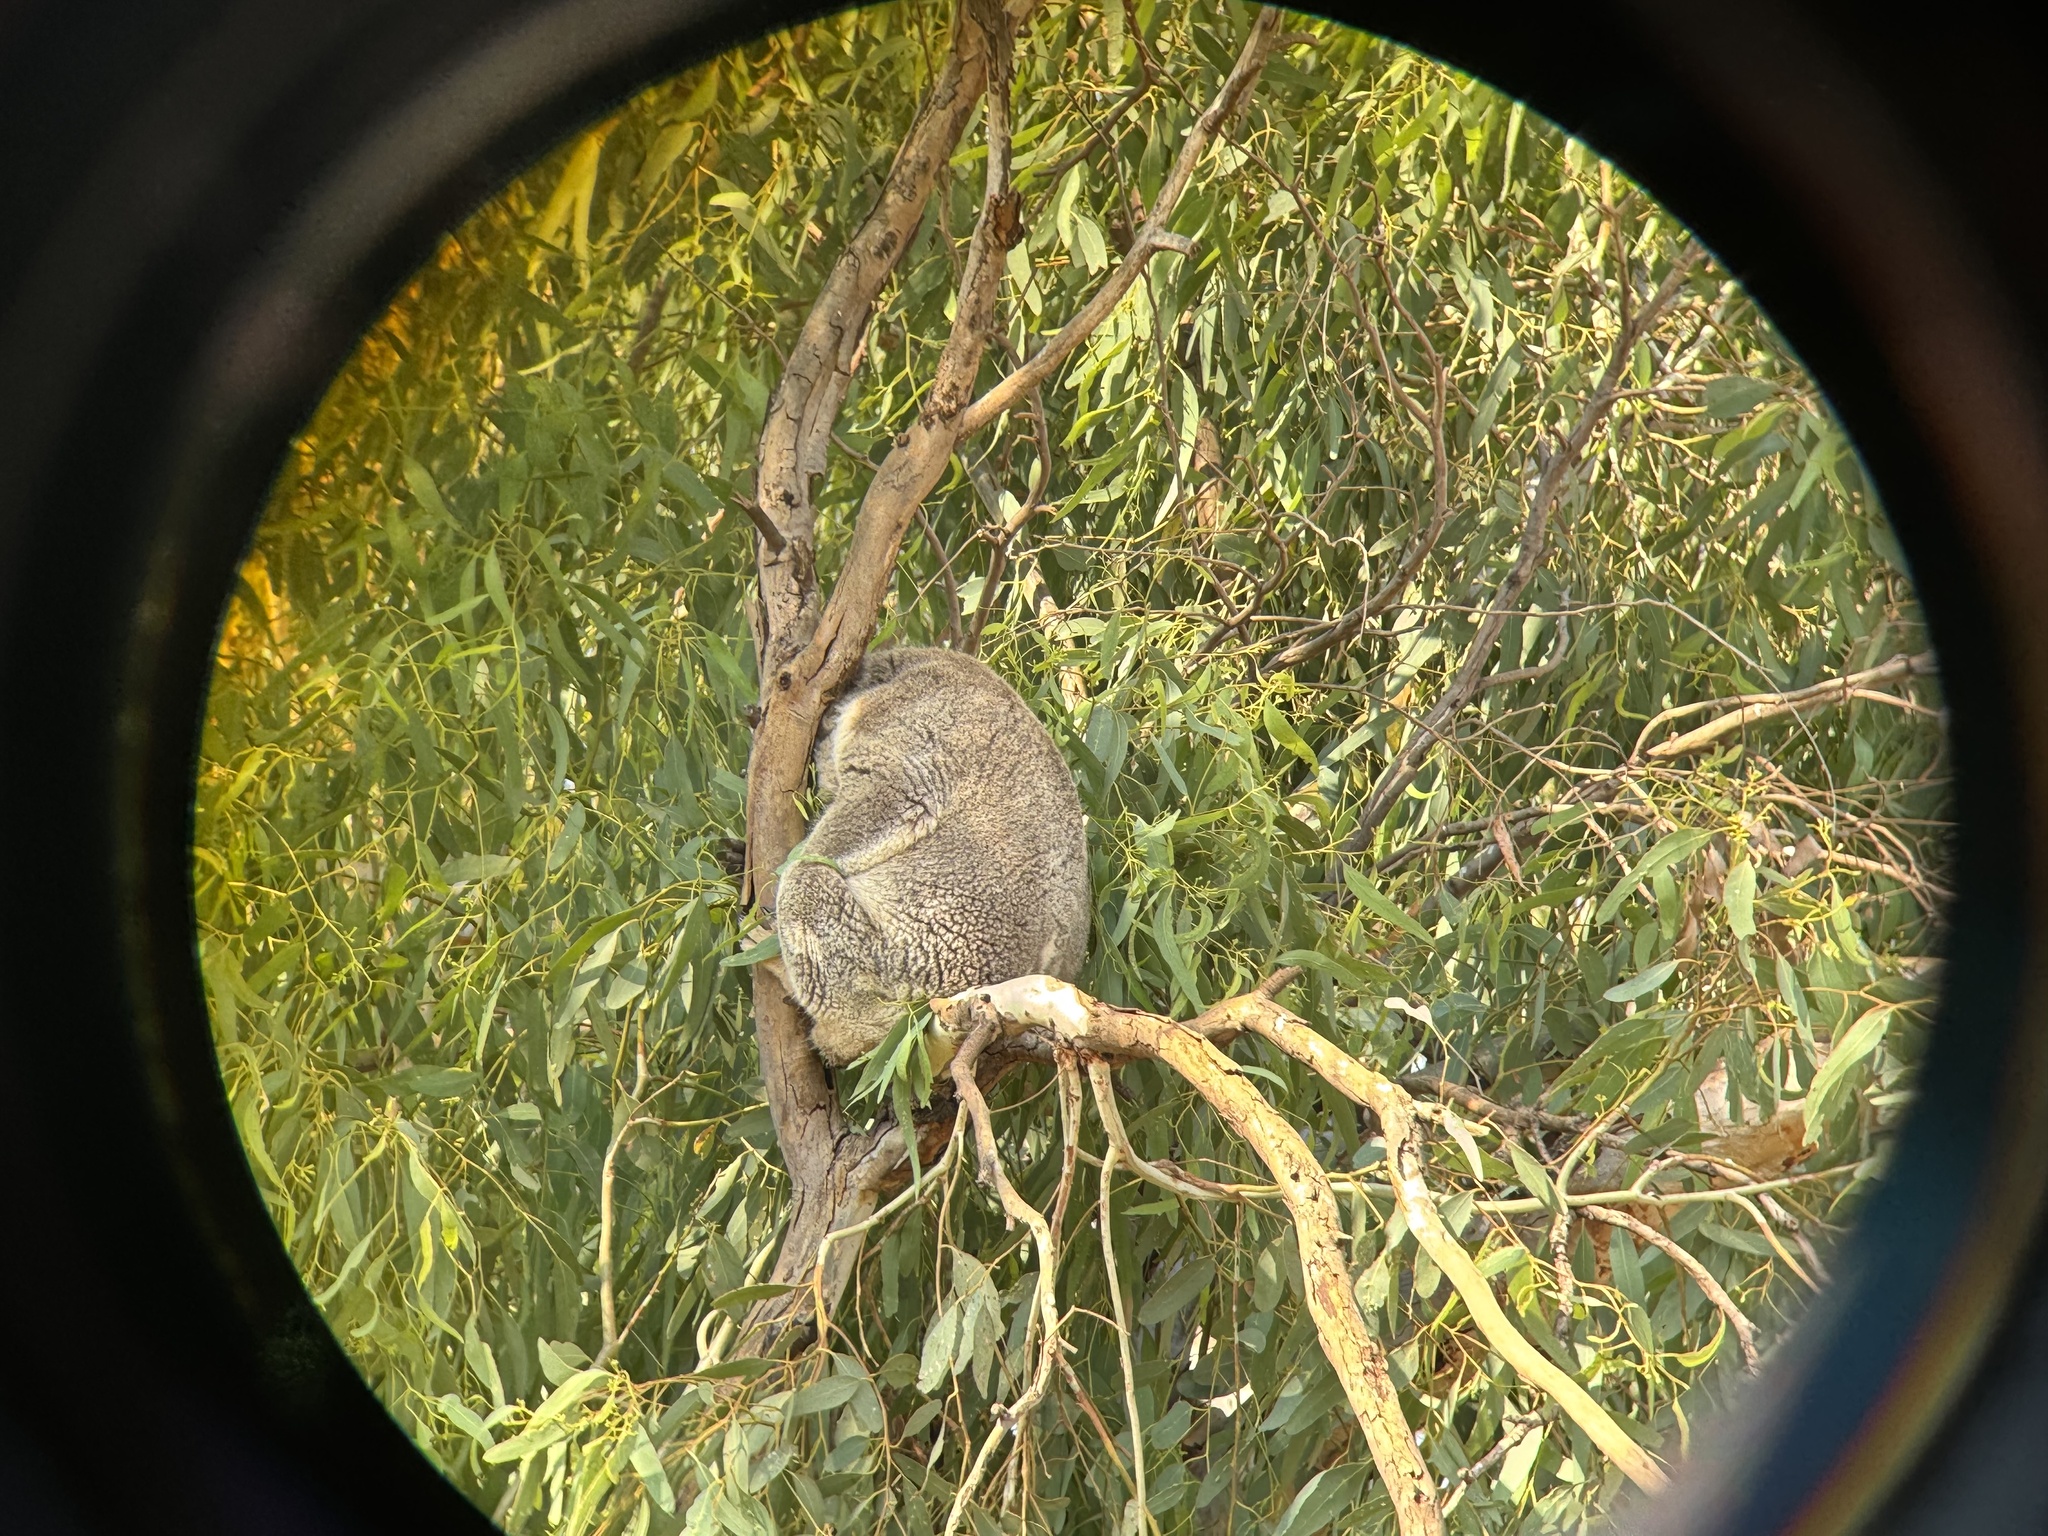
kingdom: Animalia
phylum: Chordata
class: Mammalia
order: Diprotodontia
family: Phascolarctidae
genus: Phascolarctos
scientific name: Phascolarctos cinereus
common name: Koala
